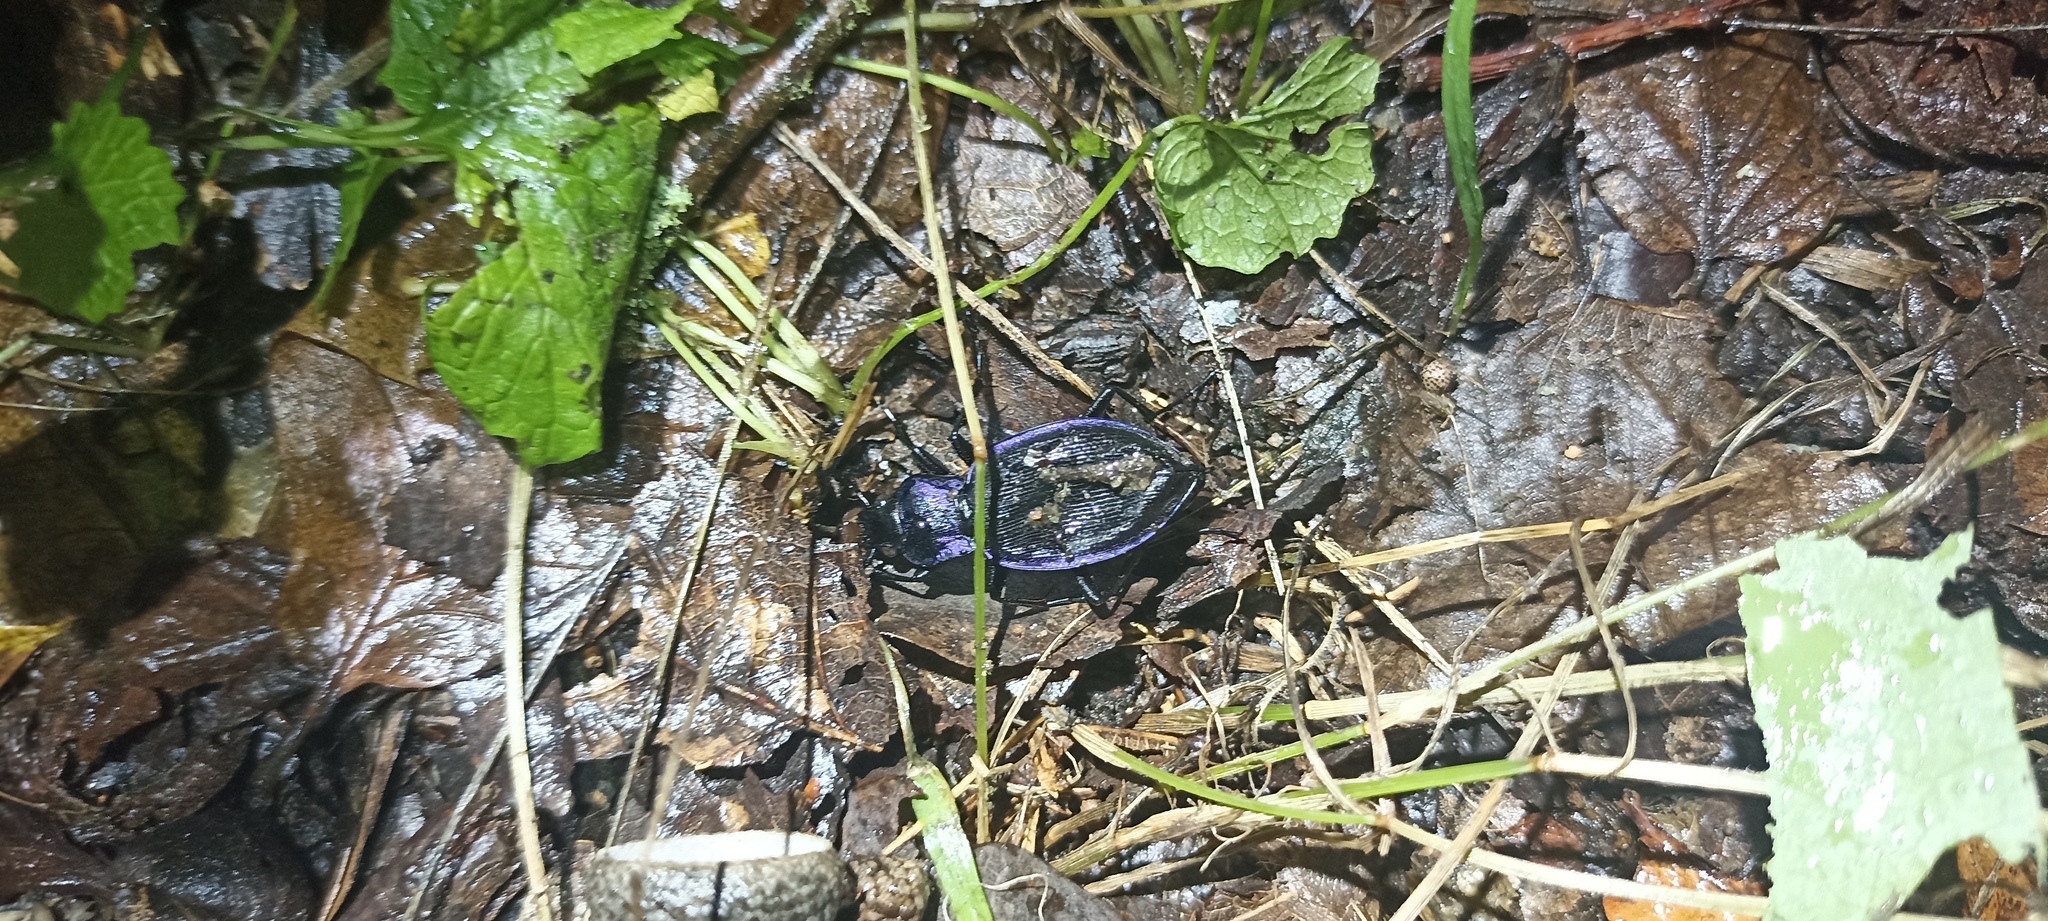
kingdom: Animalia
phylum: Arthropoda
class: Insecta
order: Coleoptera
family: Carabidae
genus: Carabus
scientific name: Carabus problematicus
